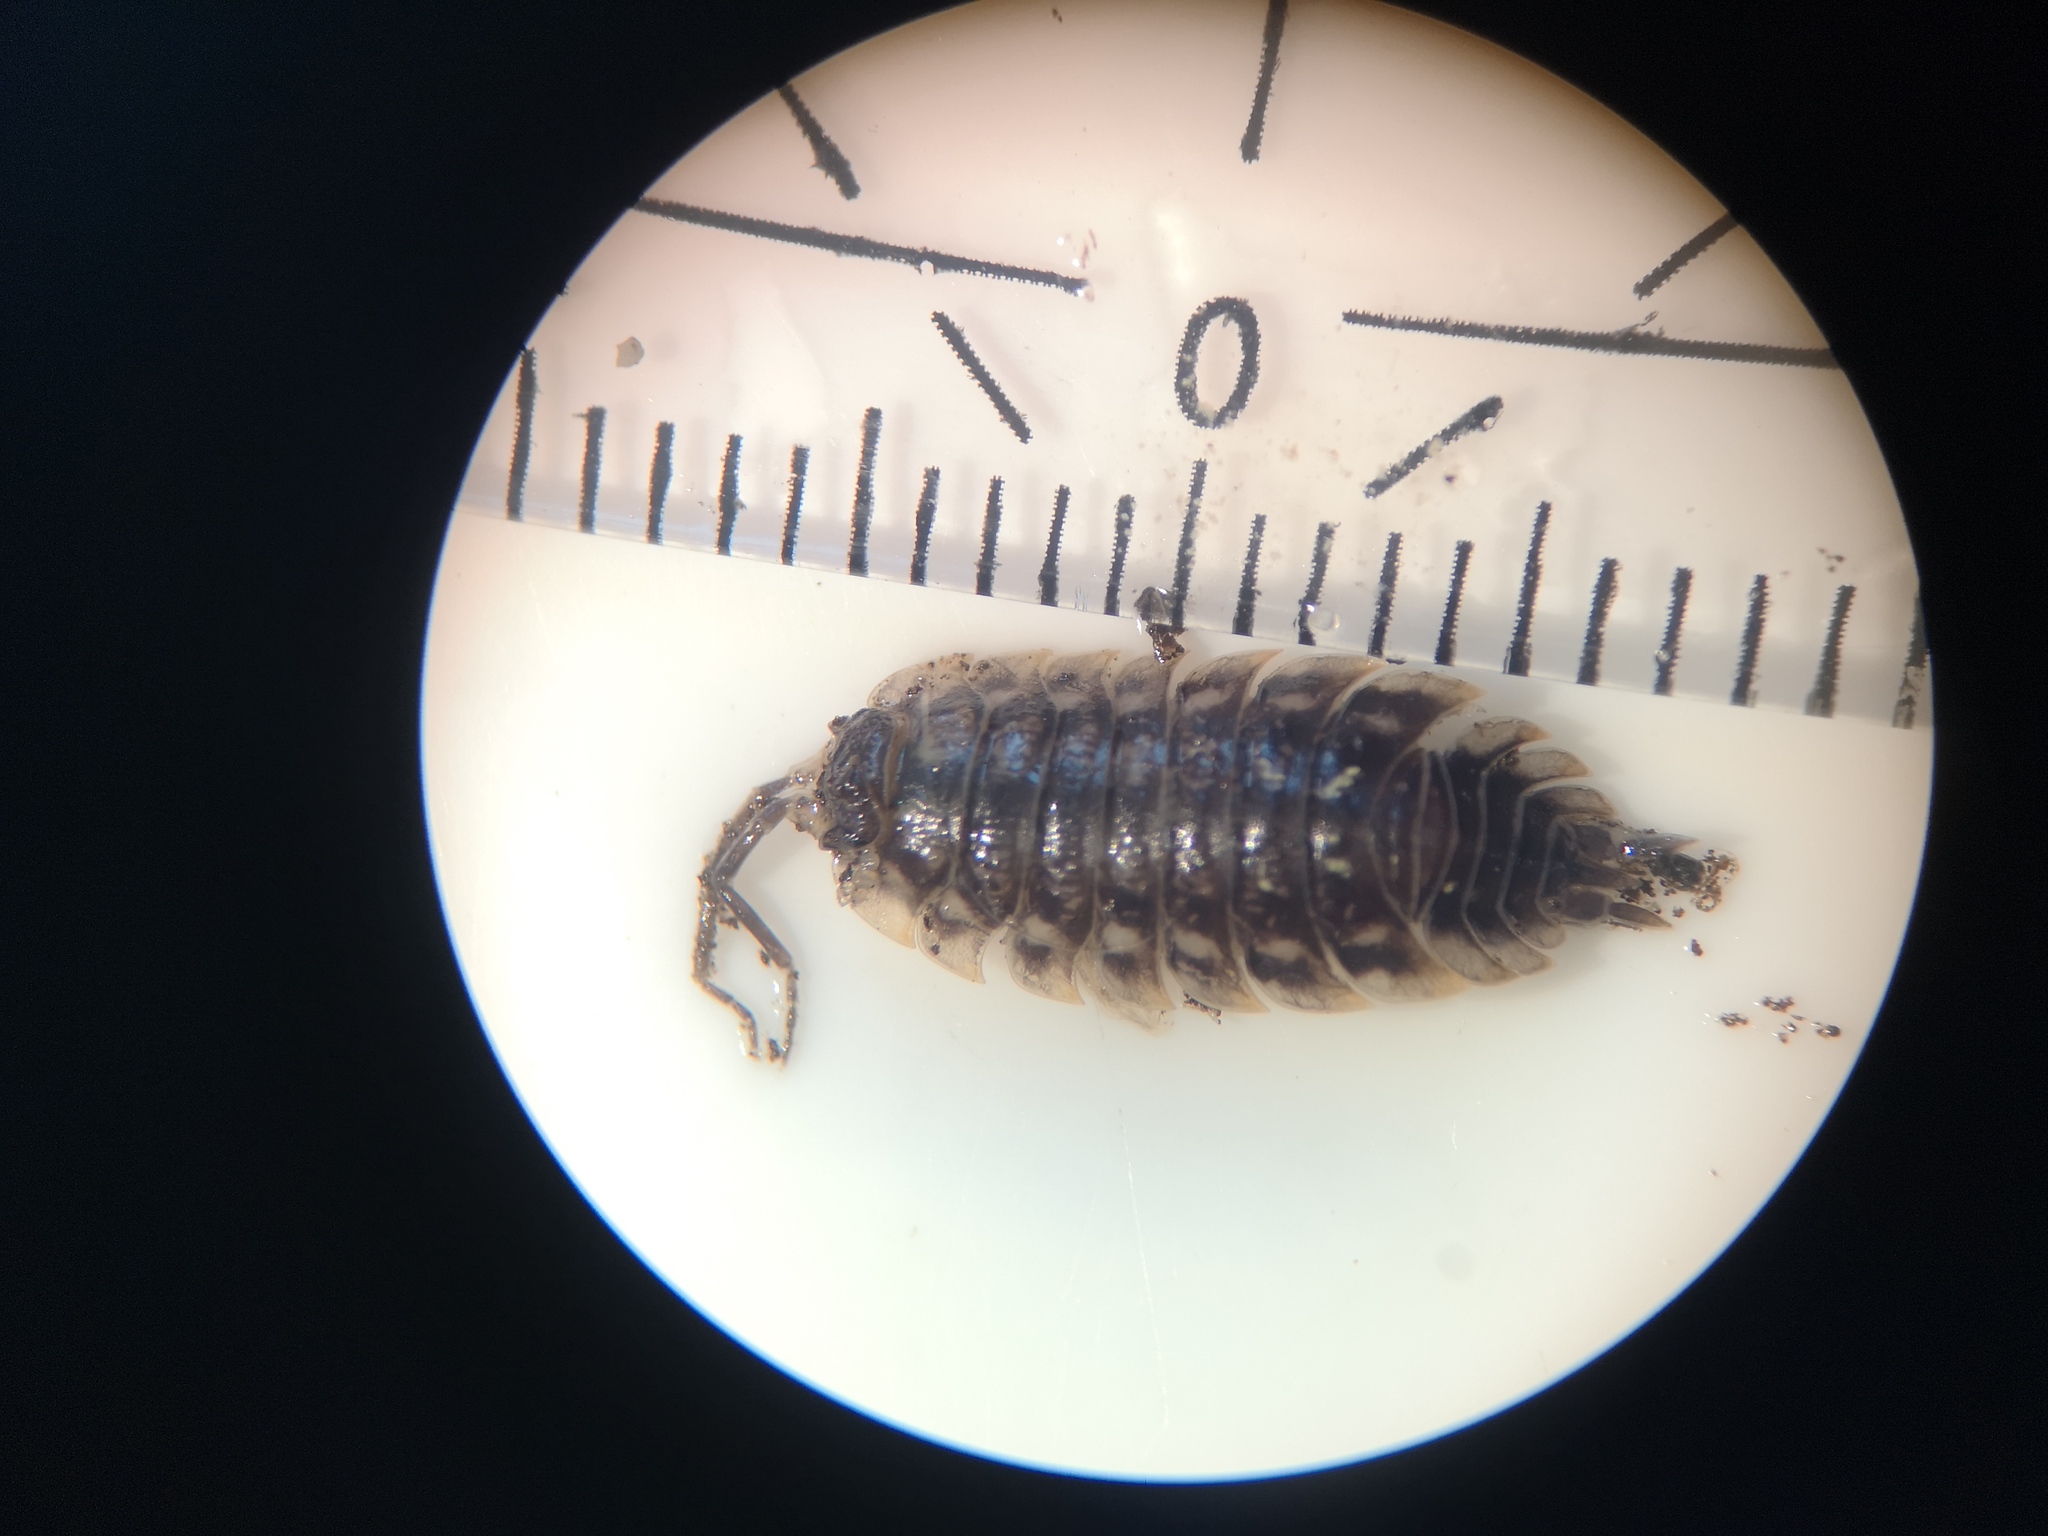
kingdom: Animalia
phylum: Arthropoda
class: Malacostraca
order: Isopoda
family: Oniscidae
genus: Oniscus
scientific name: Oniscus asellus
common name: Common shiny woodlouse
